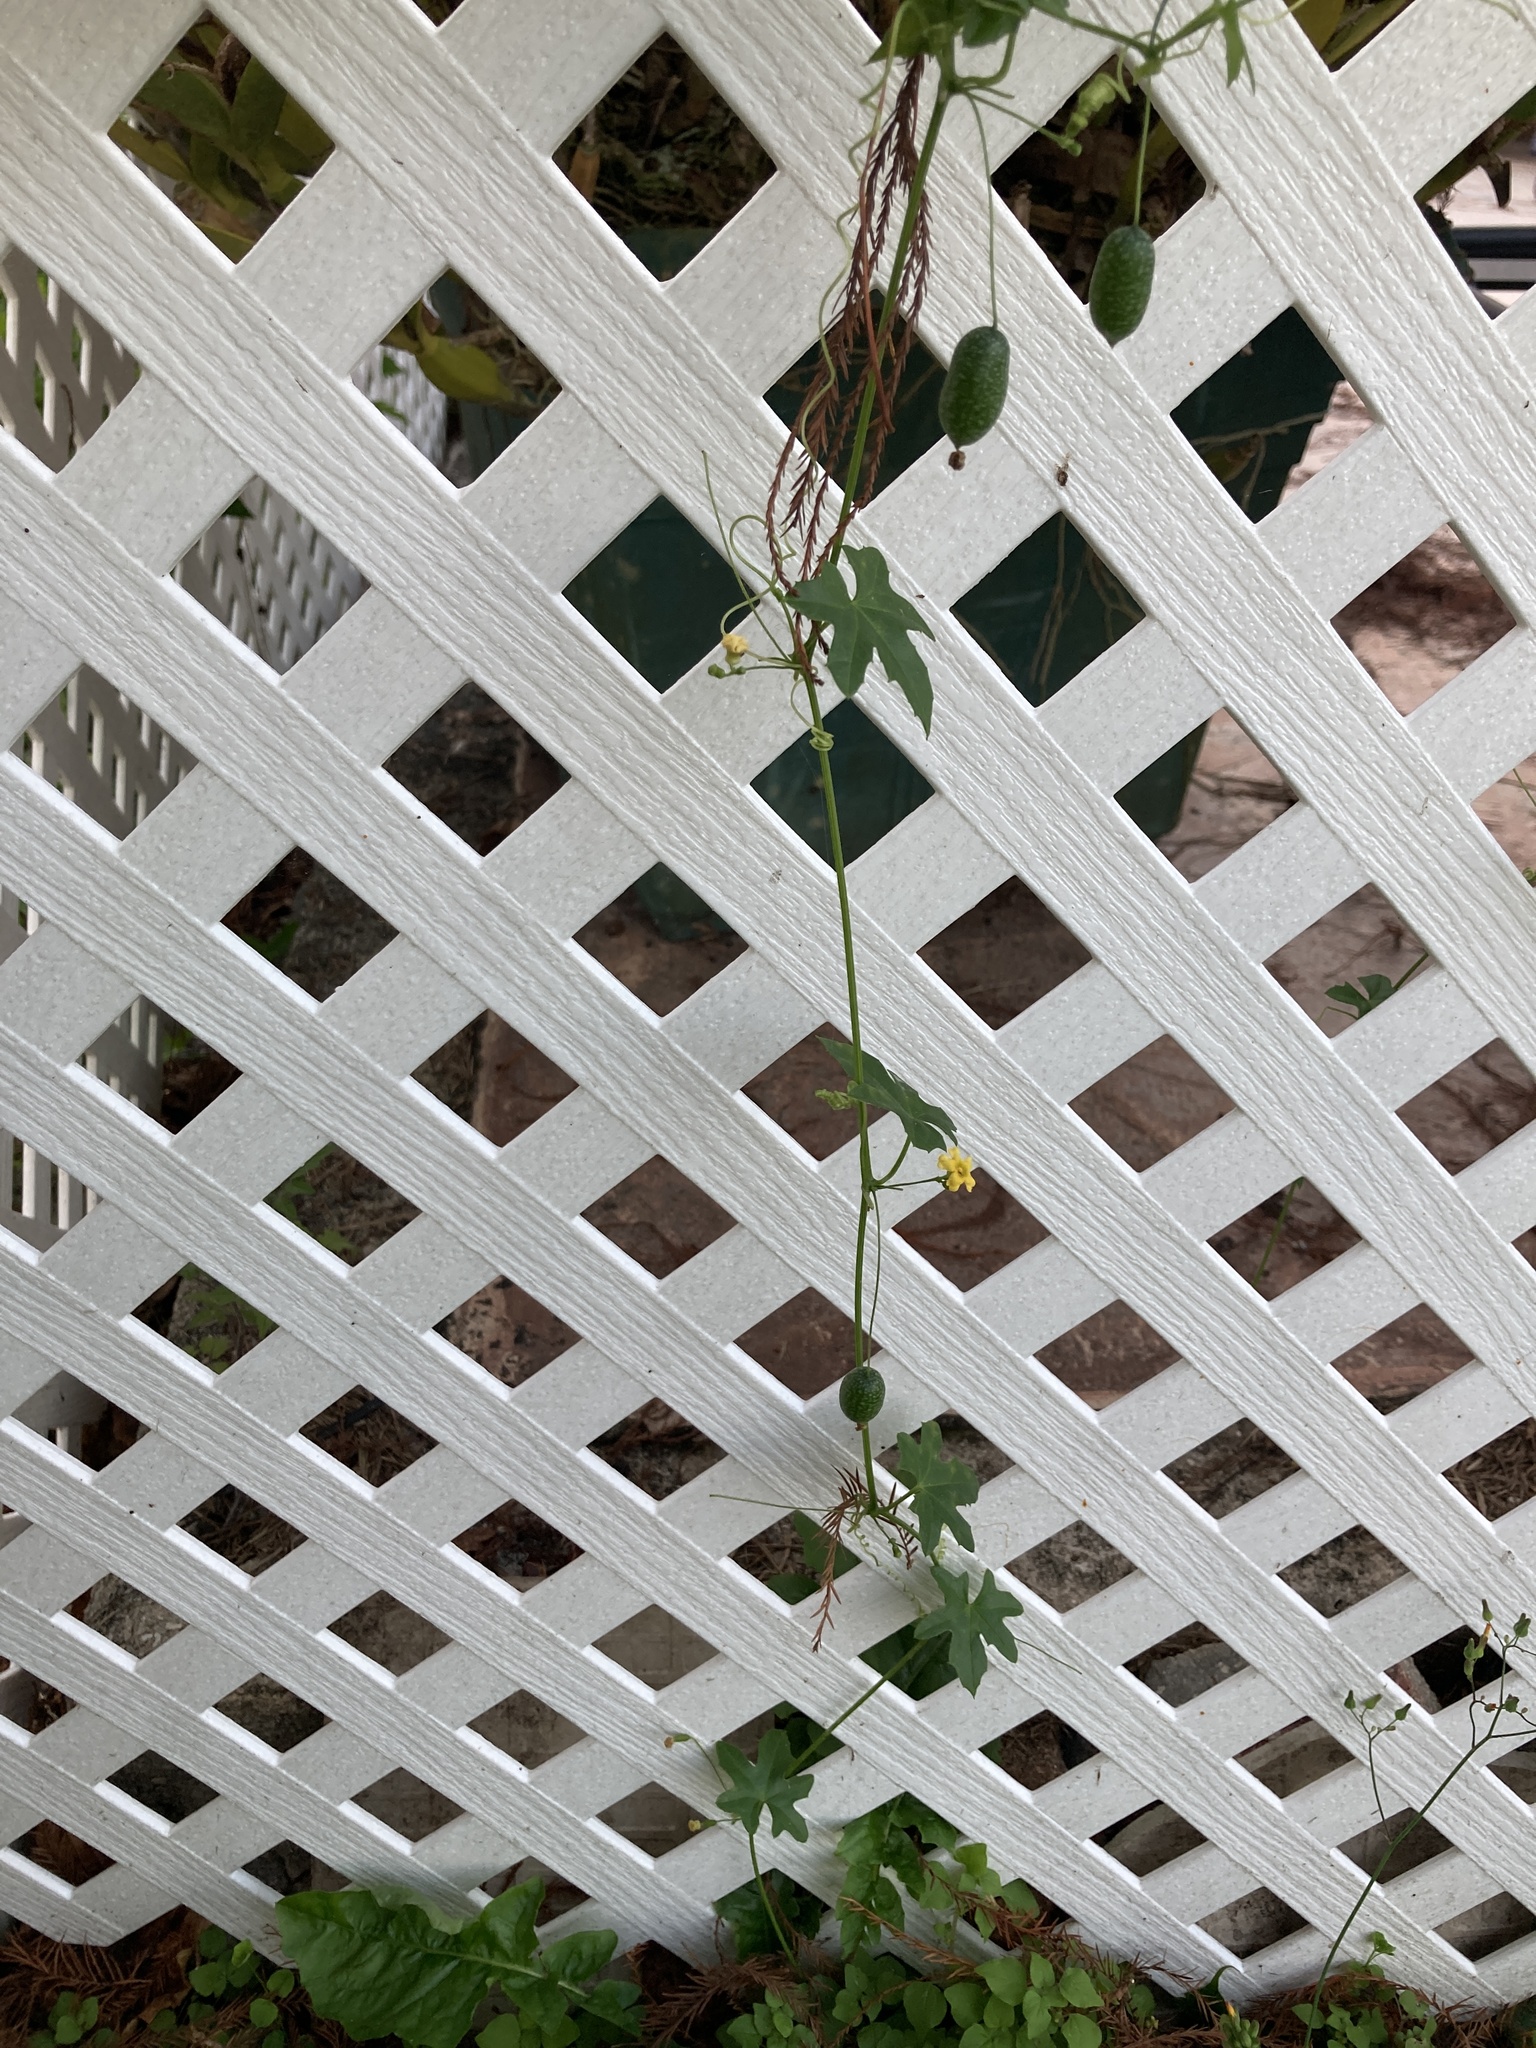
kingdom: Plantae
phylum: Tracheophyta
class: Magnoliopsida
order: Cucurbitales
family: Cucurbitaceae
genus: Melothria
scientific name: Melothria pendula
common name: Creeping-cucumber
